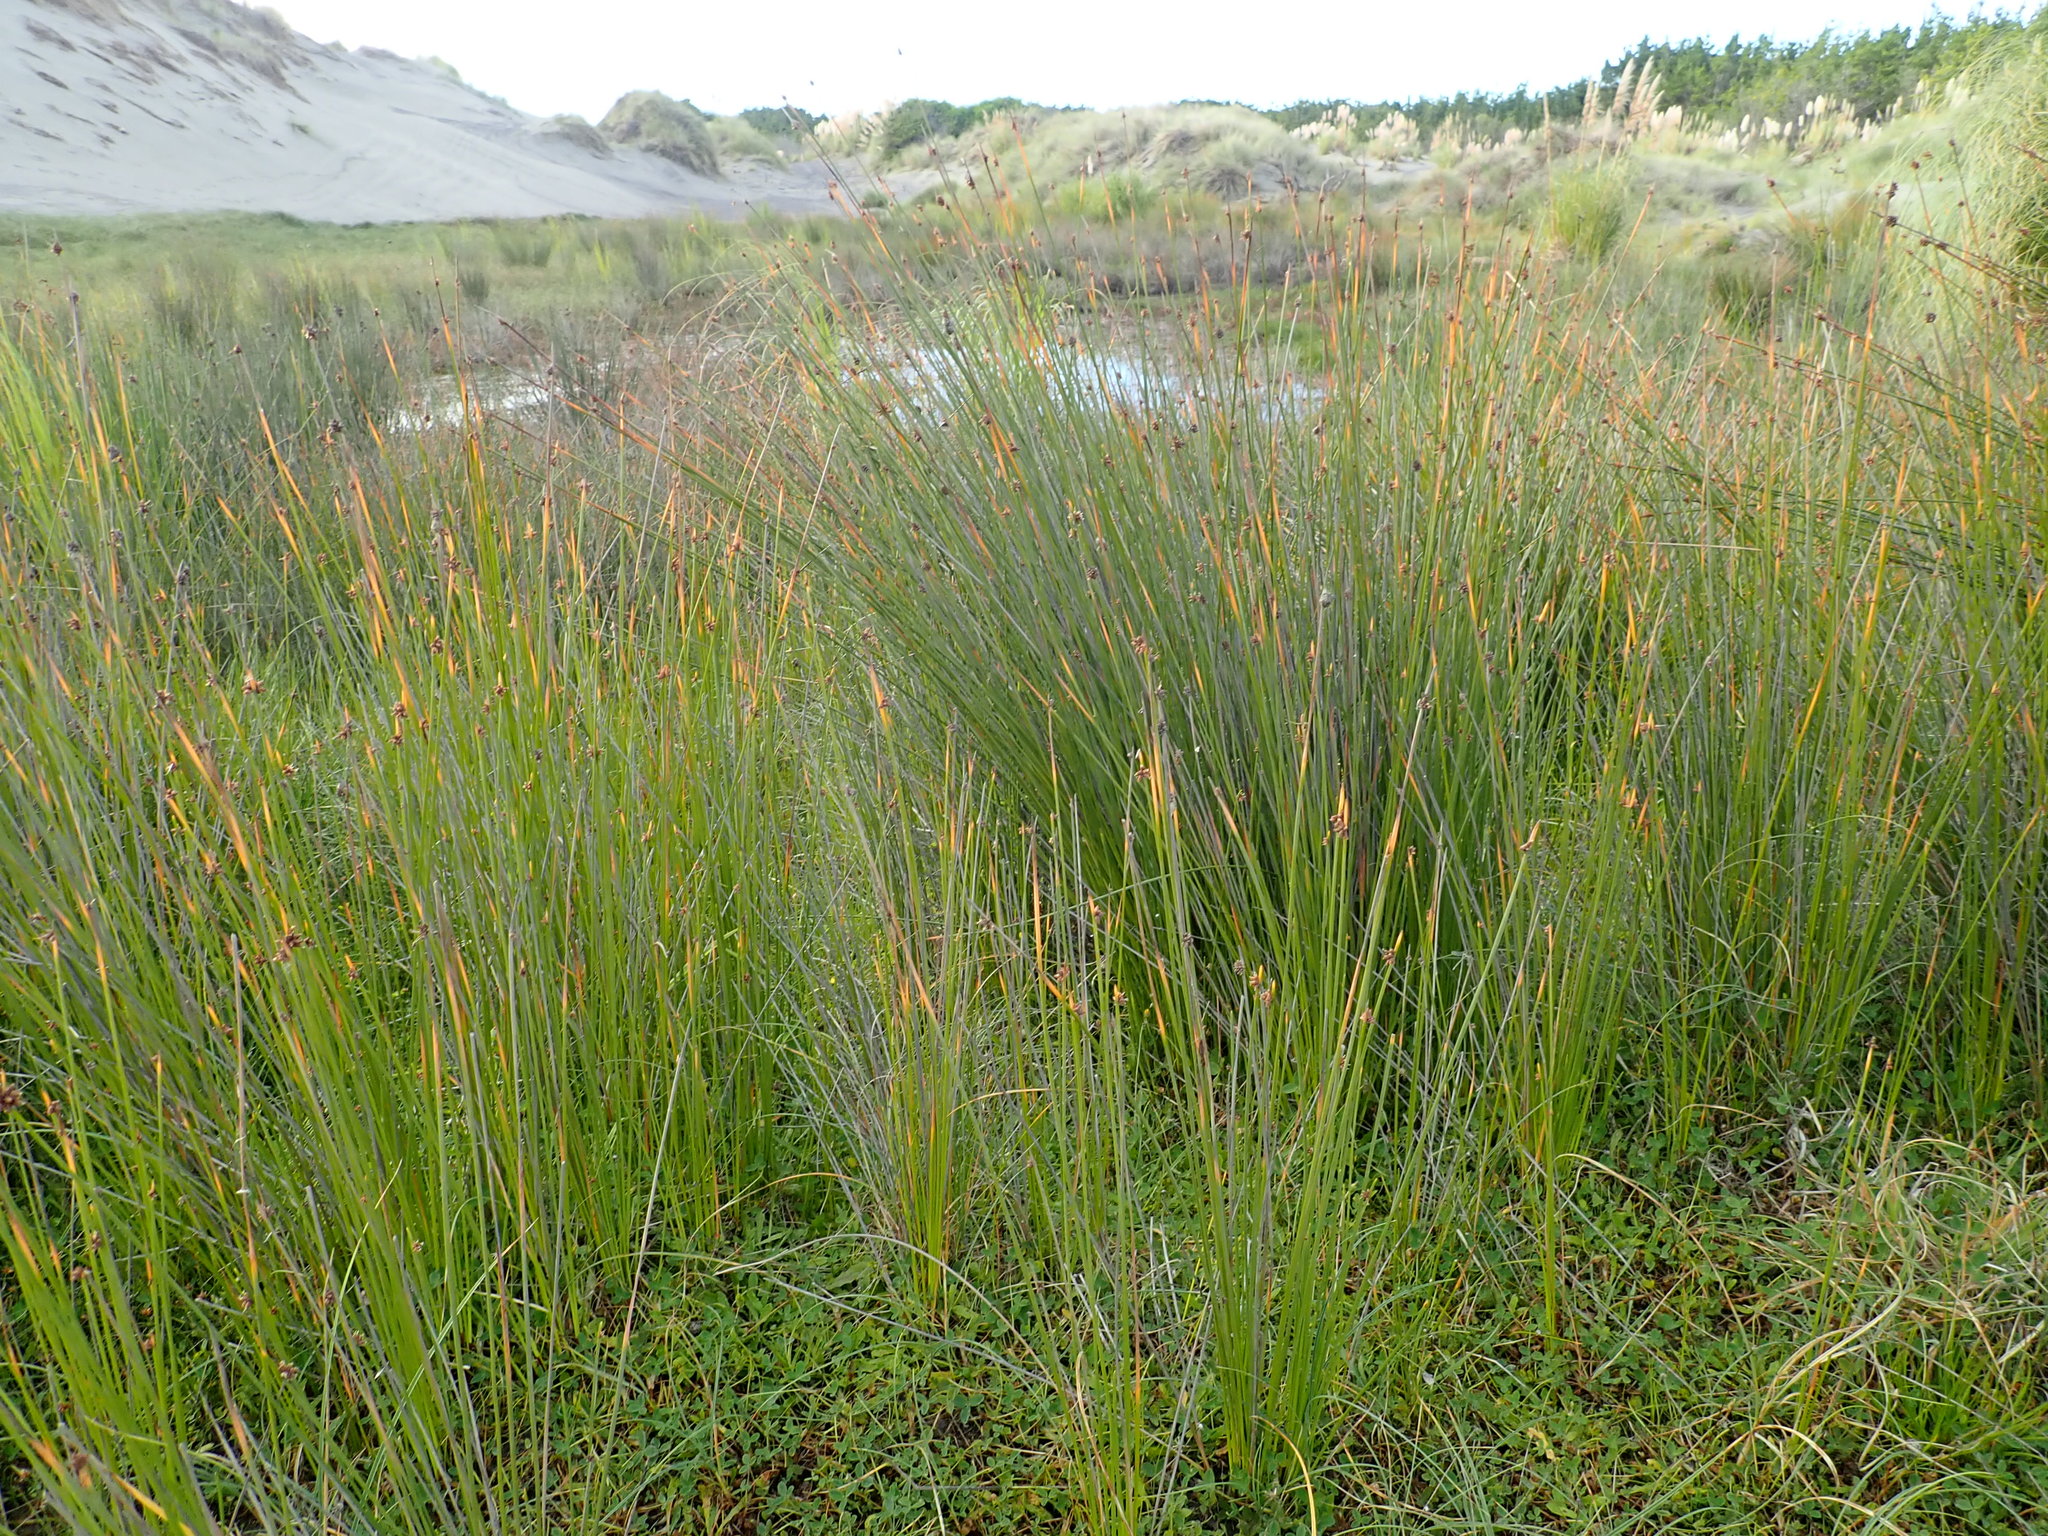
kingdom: Plantae
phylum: Tracheophyta
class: Liliopsida
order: Poales
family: Cyperaceae
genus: Ficinia
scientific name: Ficinia nodosa
